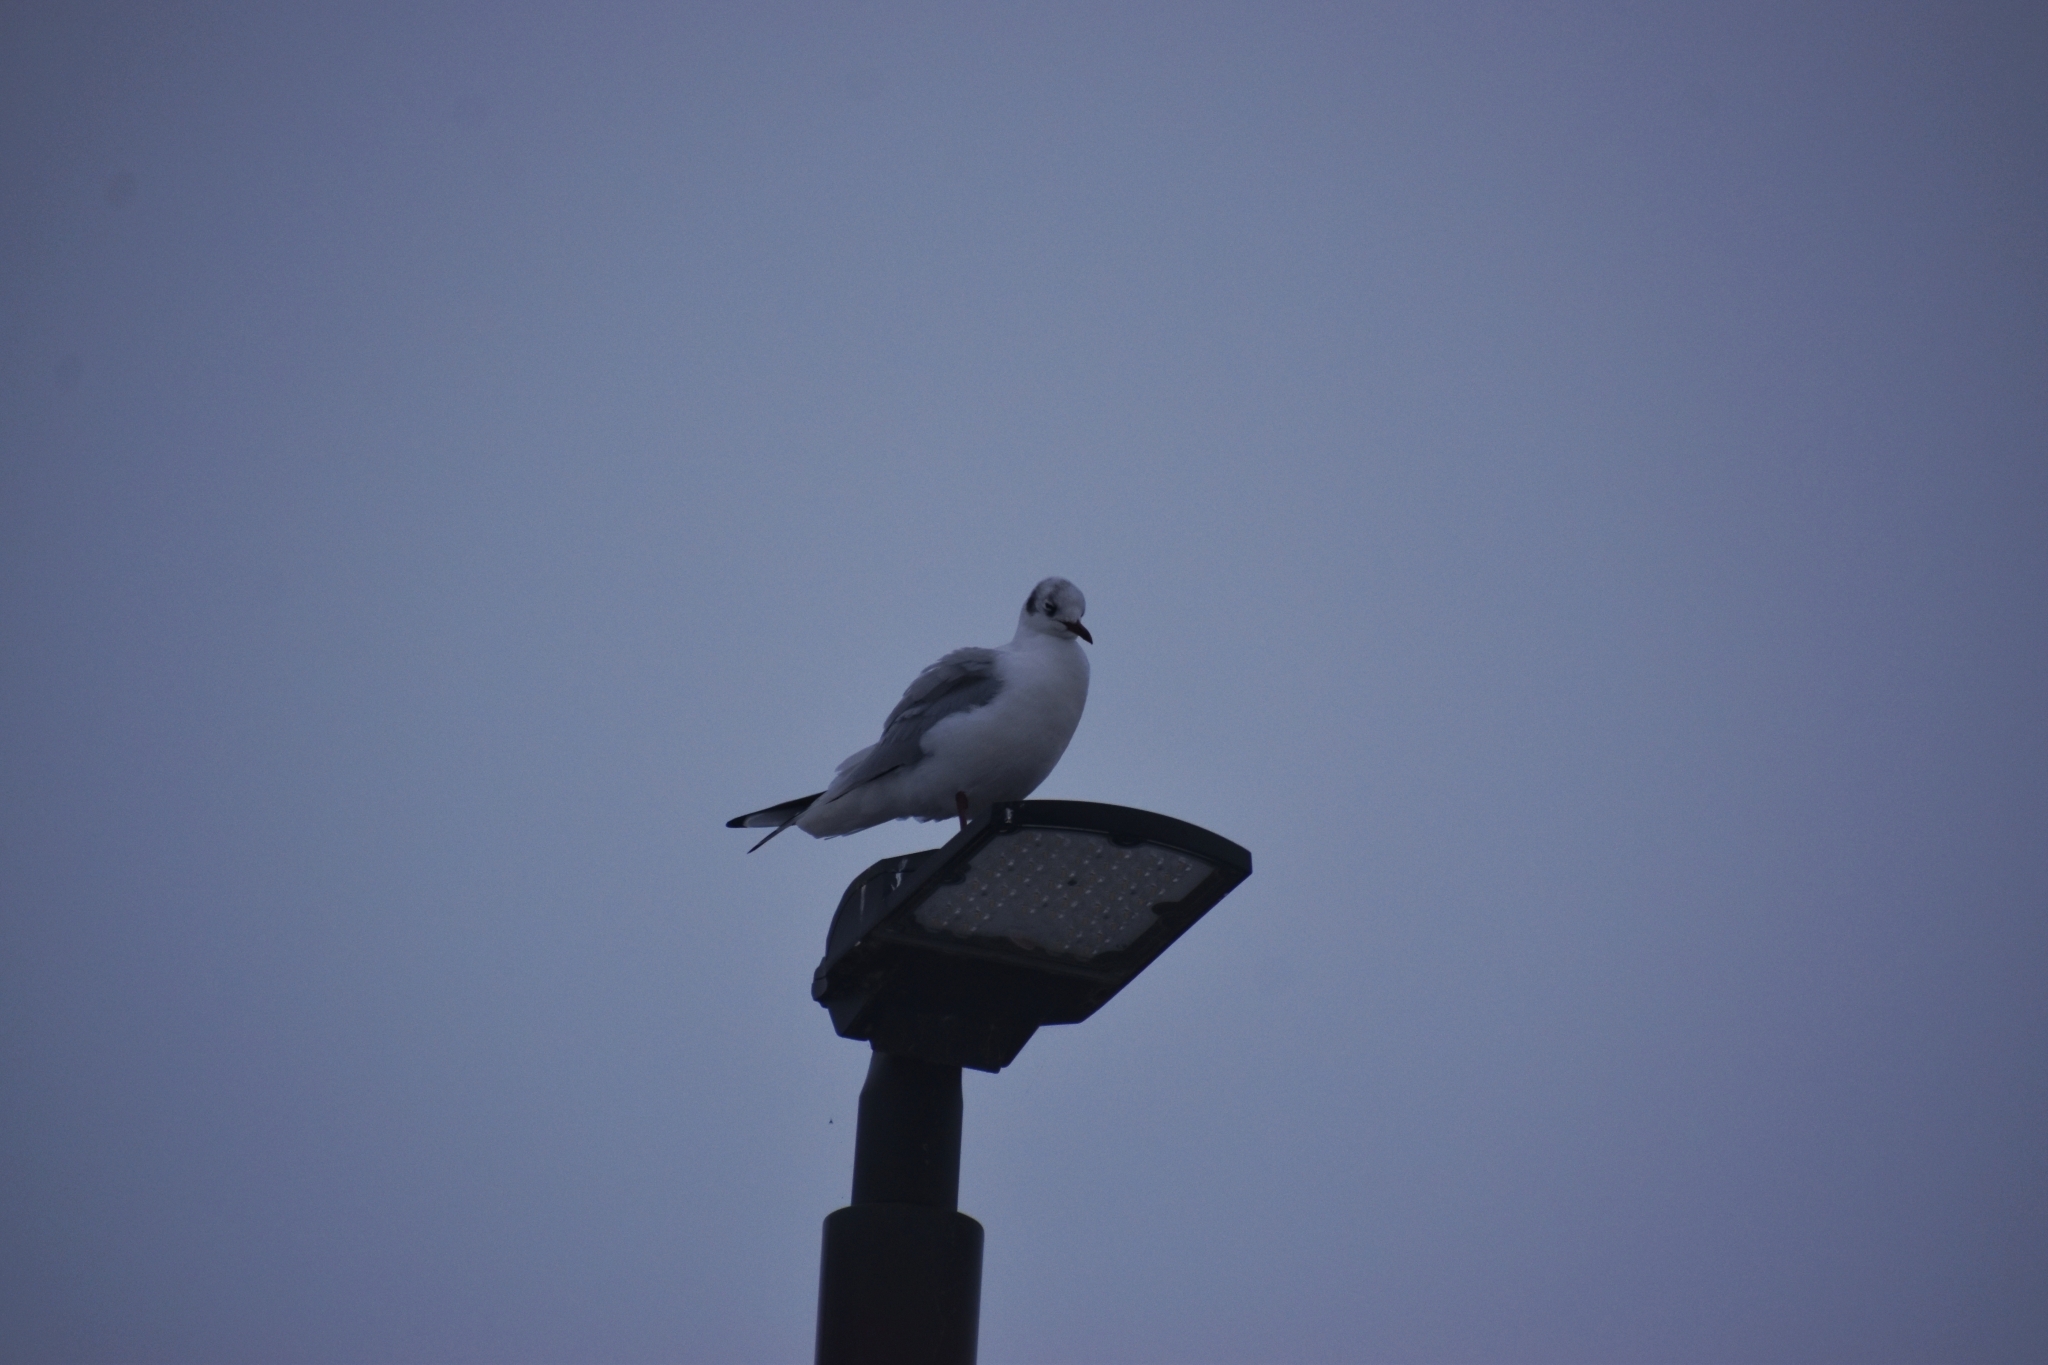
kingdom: Animalia
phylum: Chordata
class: Aves
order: Charadriiformes
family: Laridae
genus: Chroicocephalus
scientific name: Chroicocephalus ridibundus
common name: Black-headed gull
